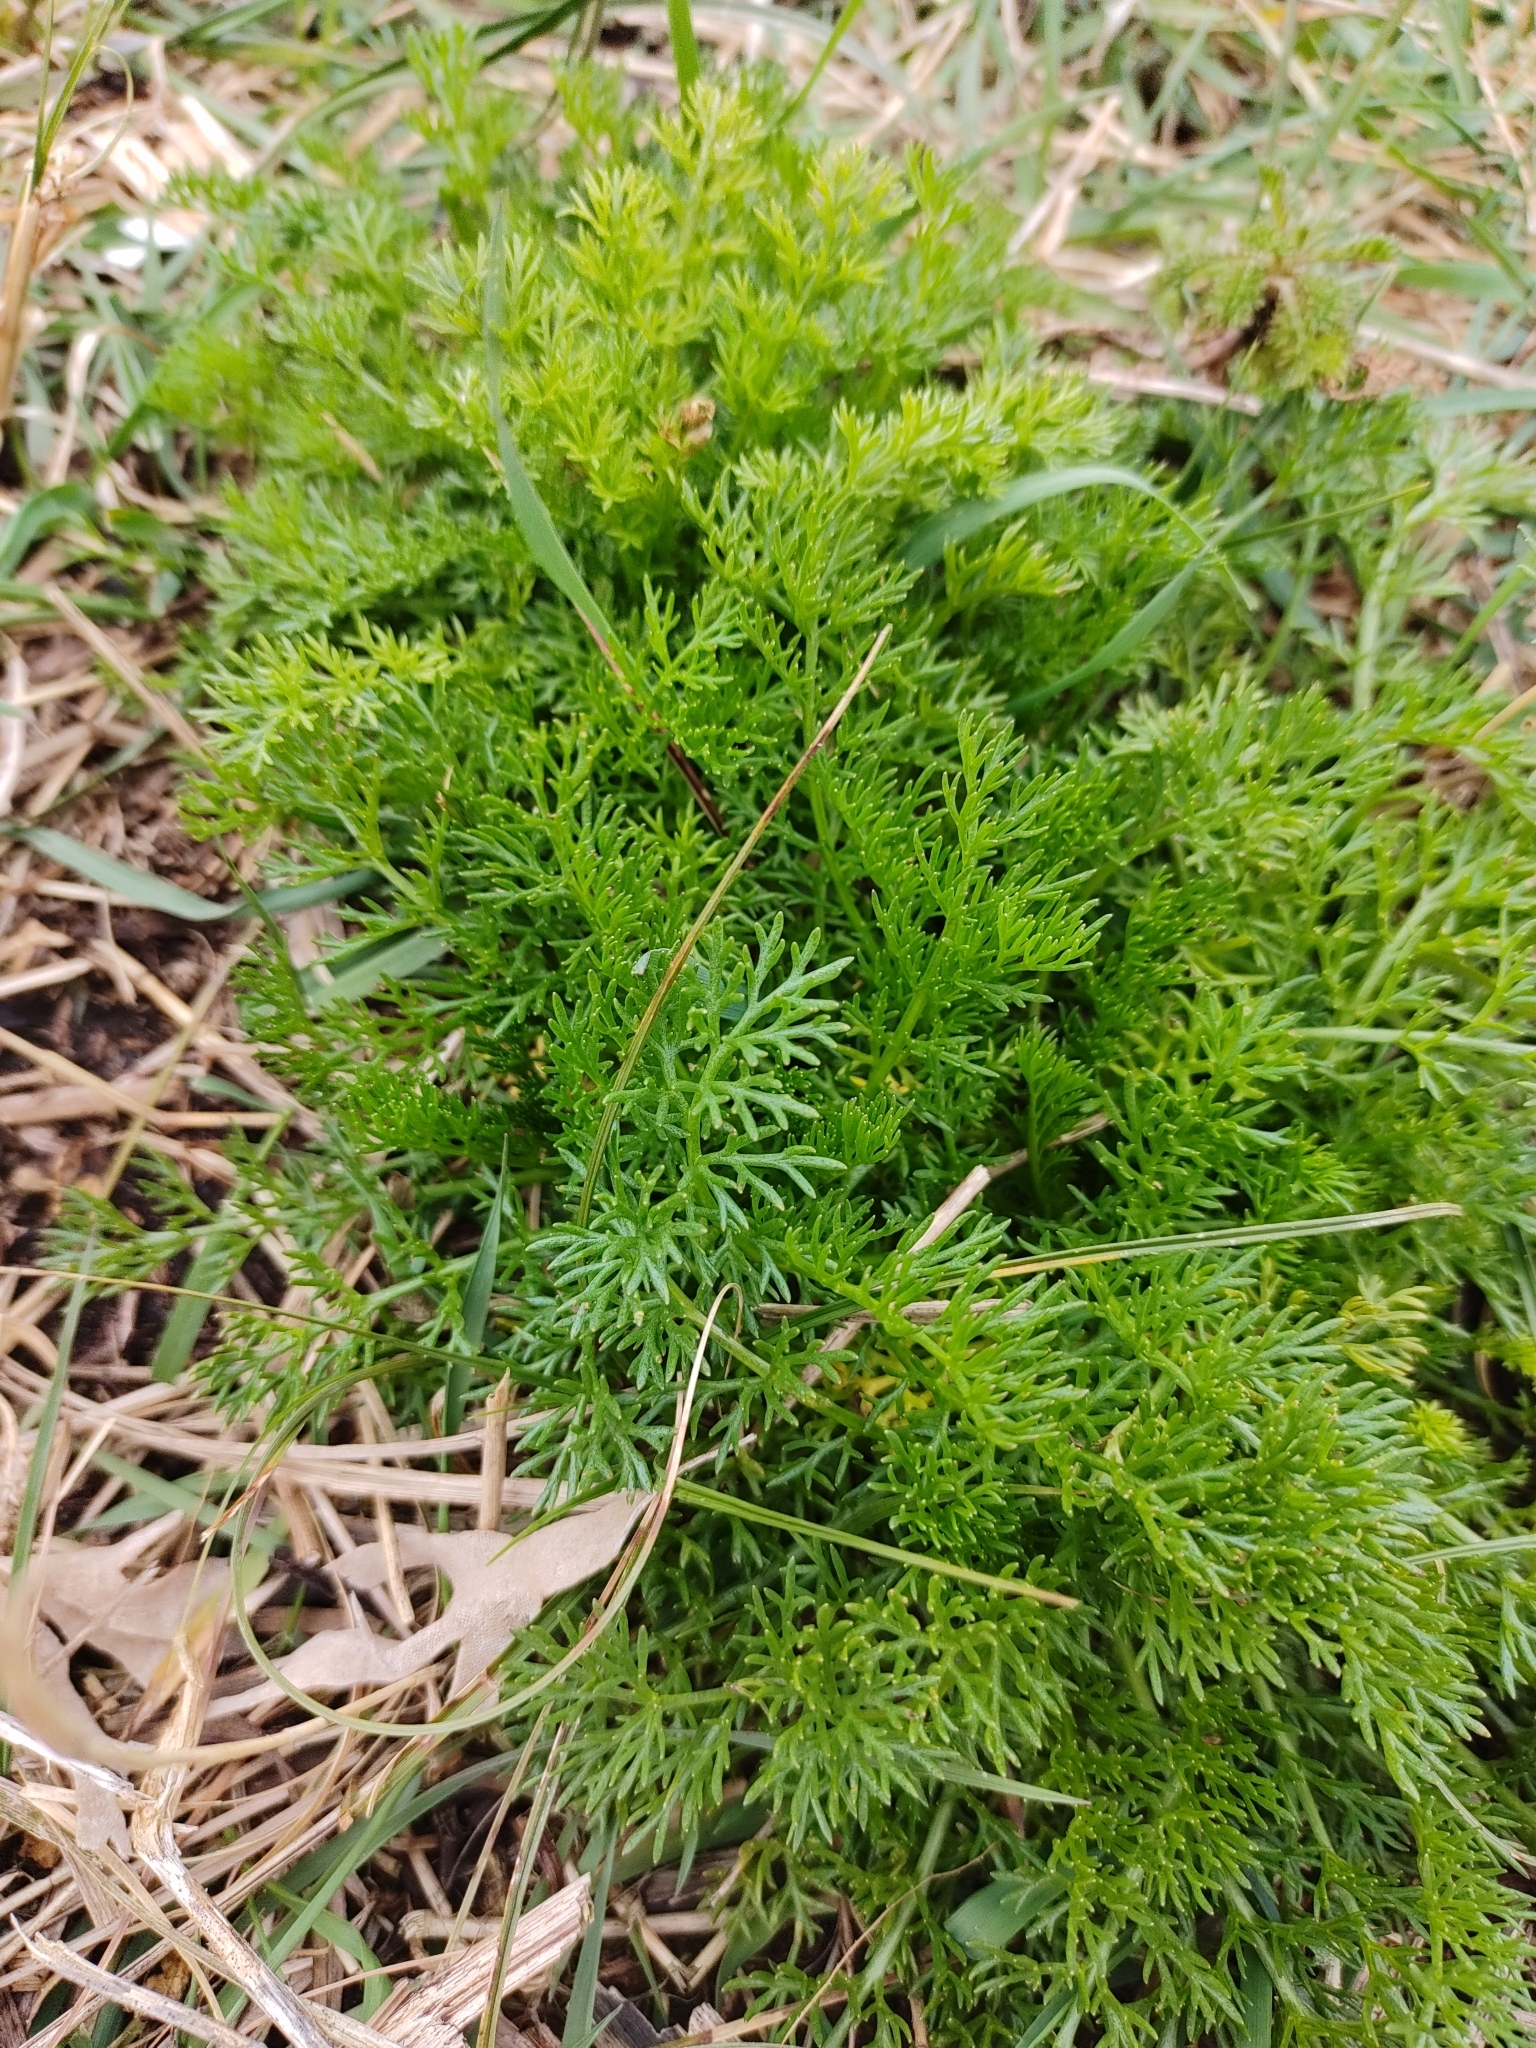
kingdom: Plantae
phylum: Tracheophyta
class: Magnoliopsida
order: Asterales
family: Asteraceae
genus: Tripleurospermum
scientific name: Tripleurospermum maritimum
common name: Sea mayweed
